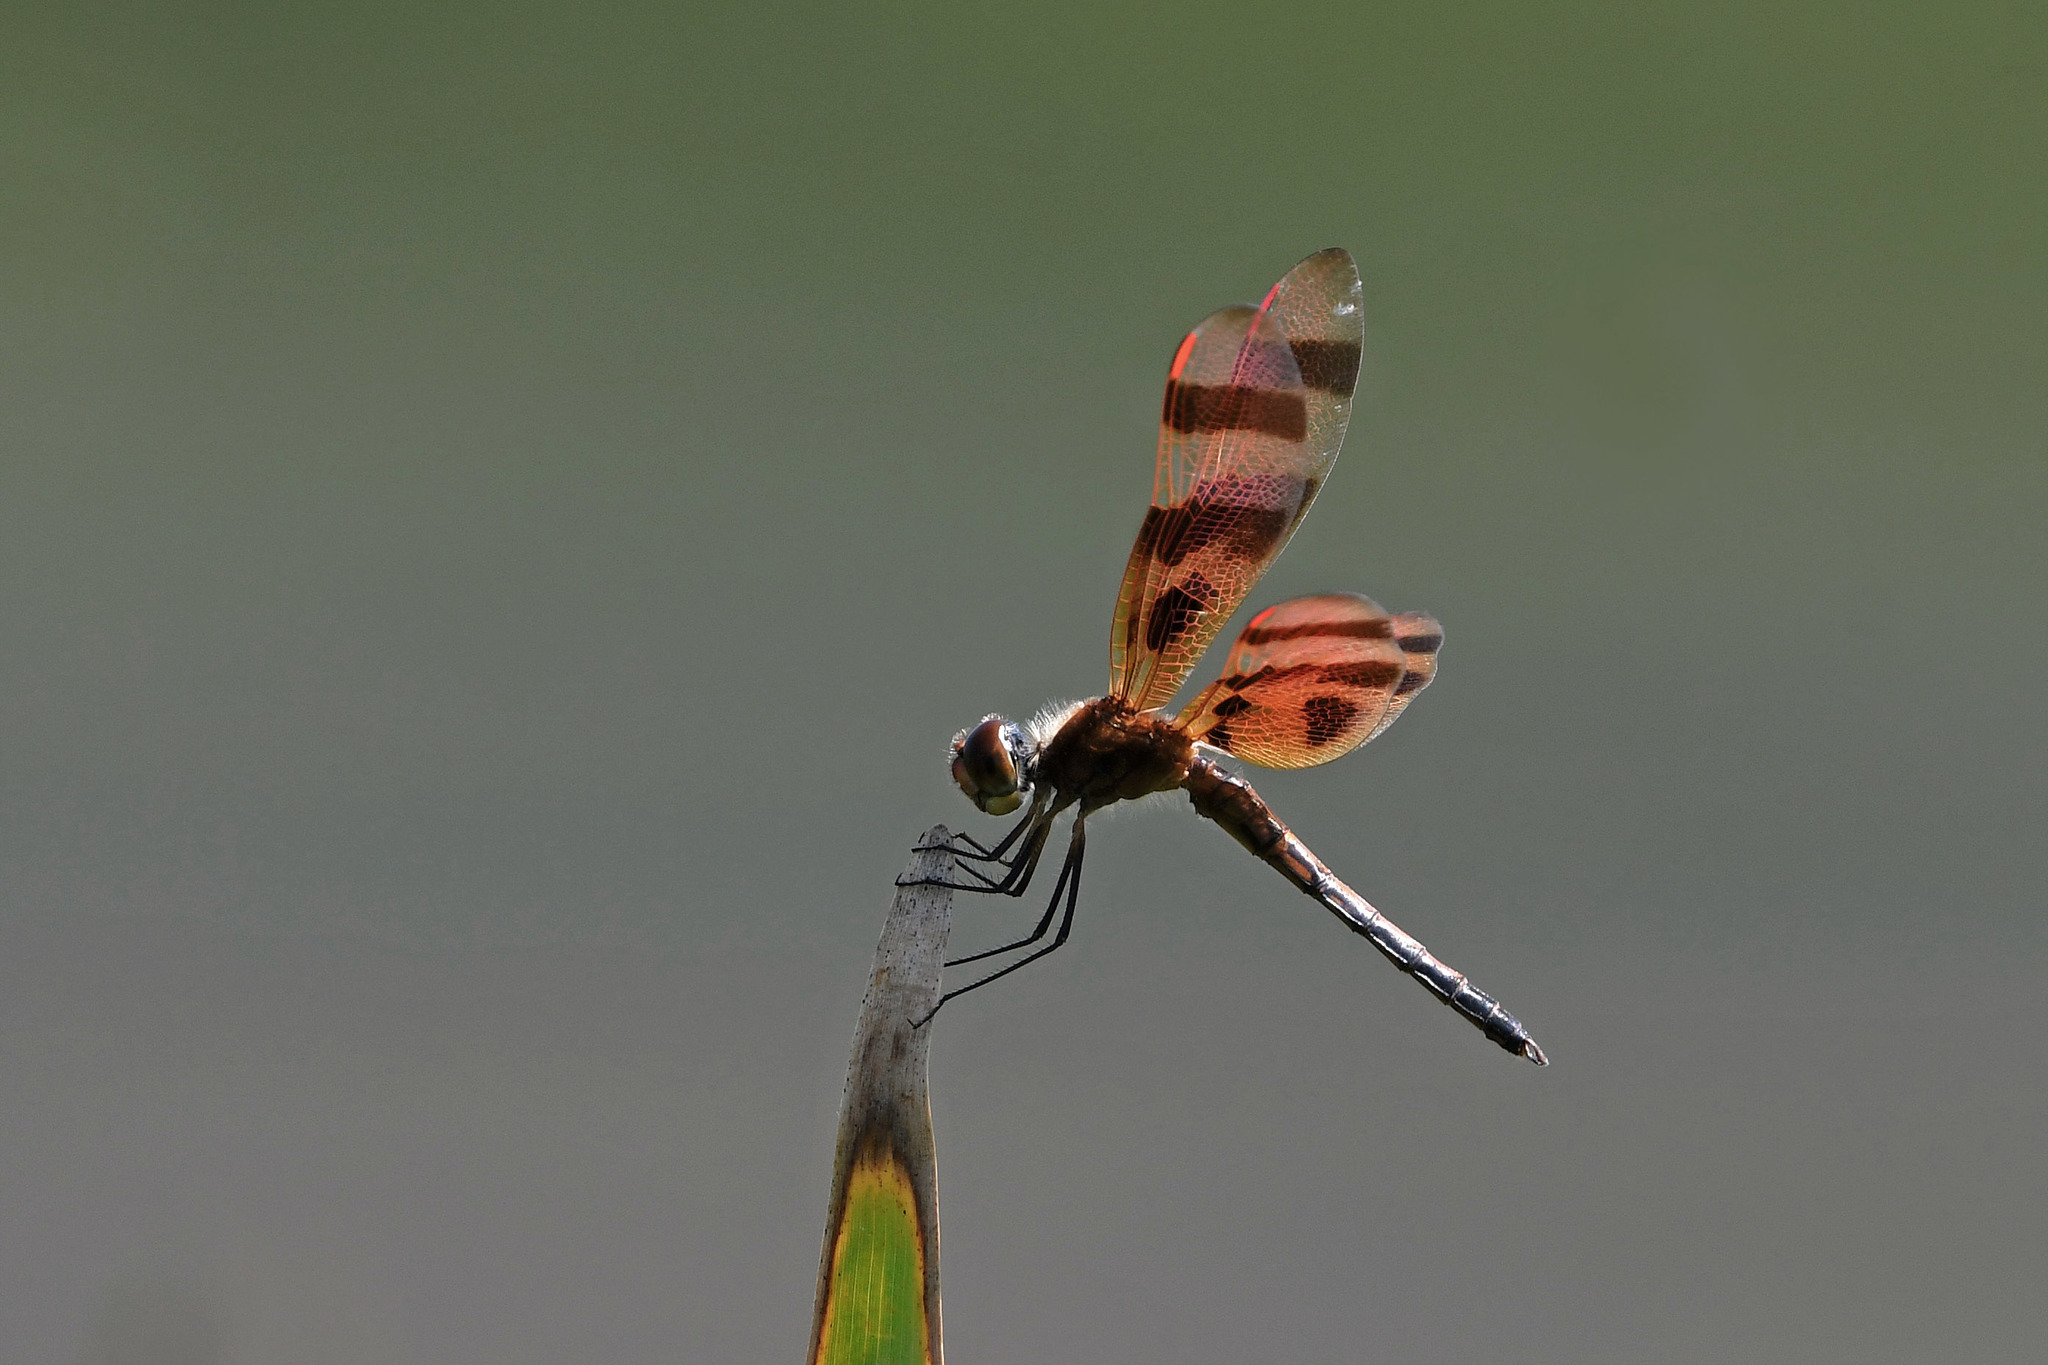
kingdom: Animalia
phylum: Arthropoda
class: Insecta
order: Odonata
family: Libellulidae
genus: Celithemis
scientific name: Celithemis eponina
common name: Halloween pennant
